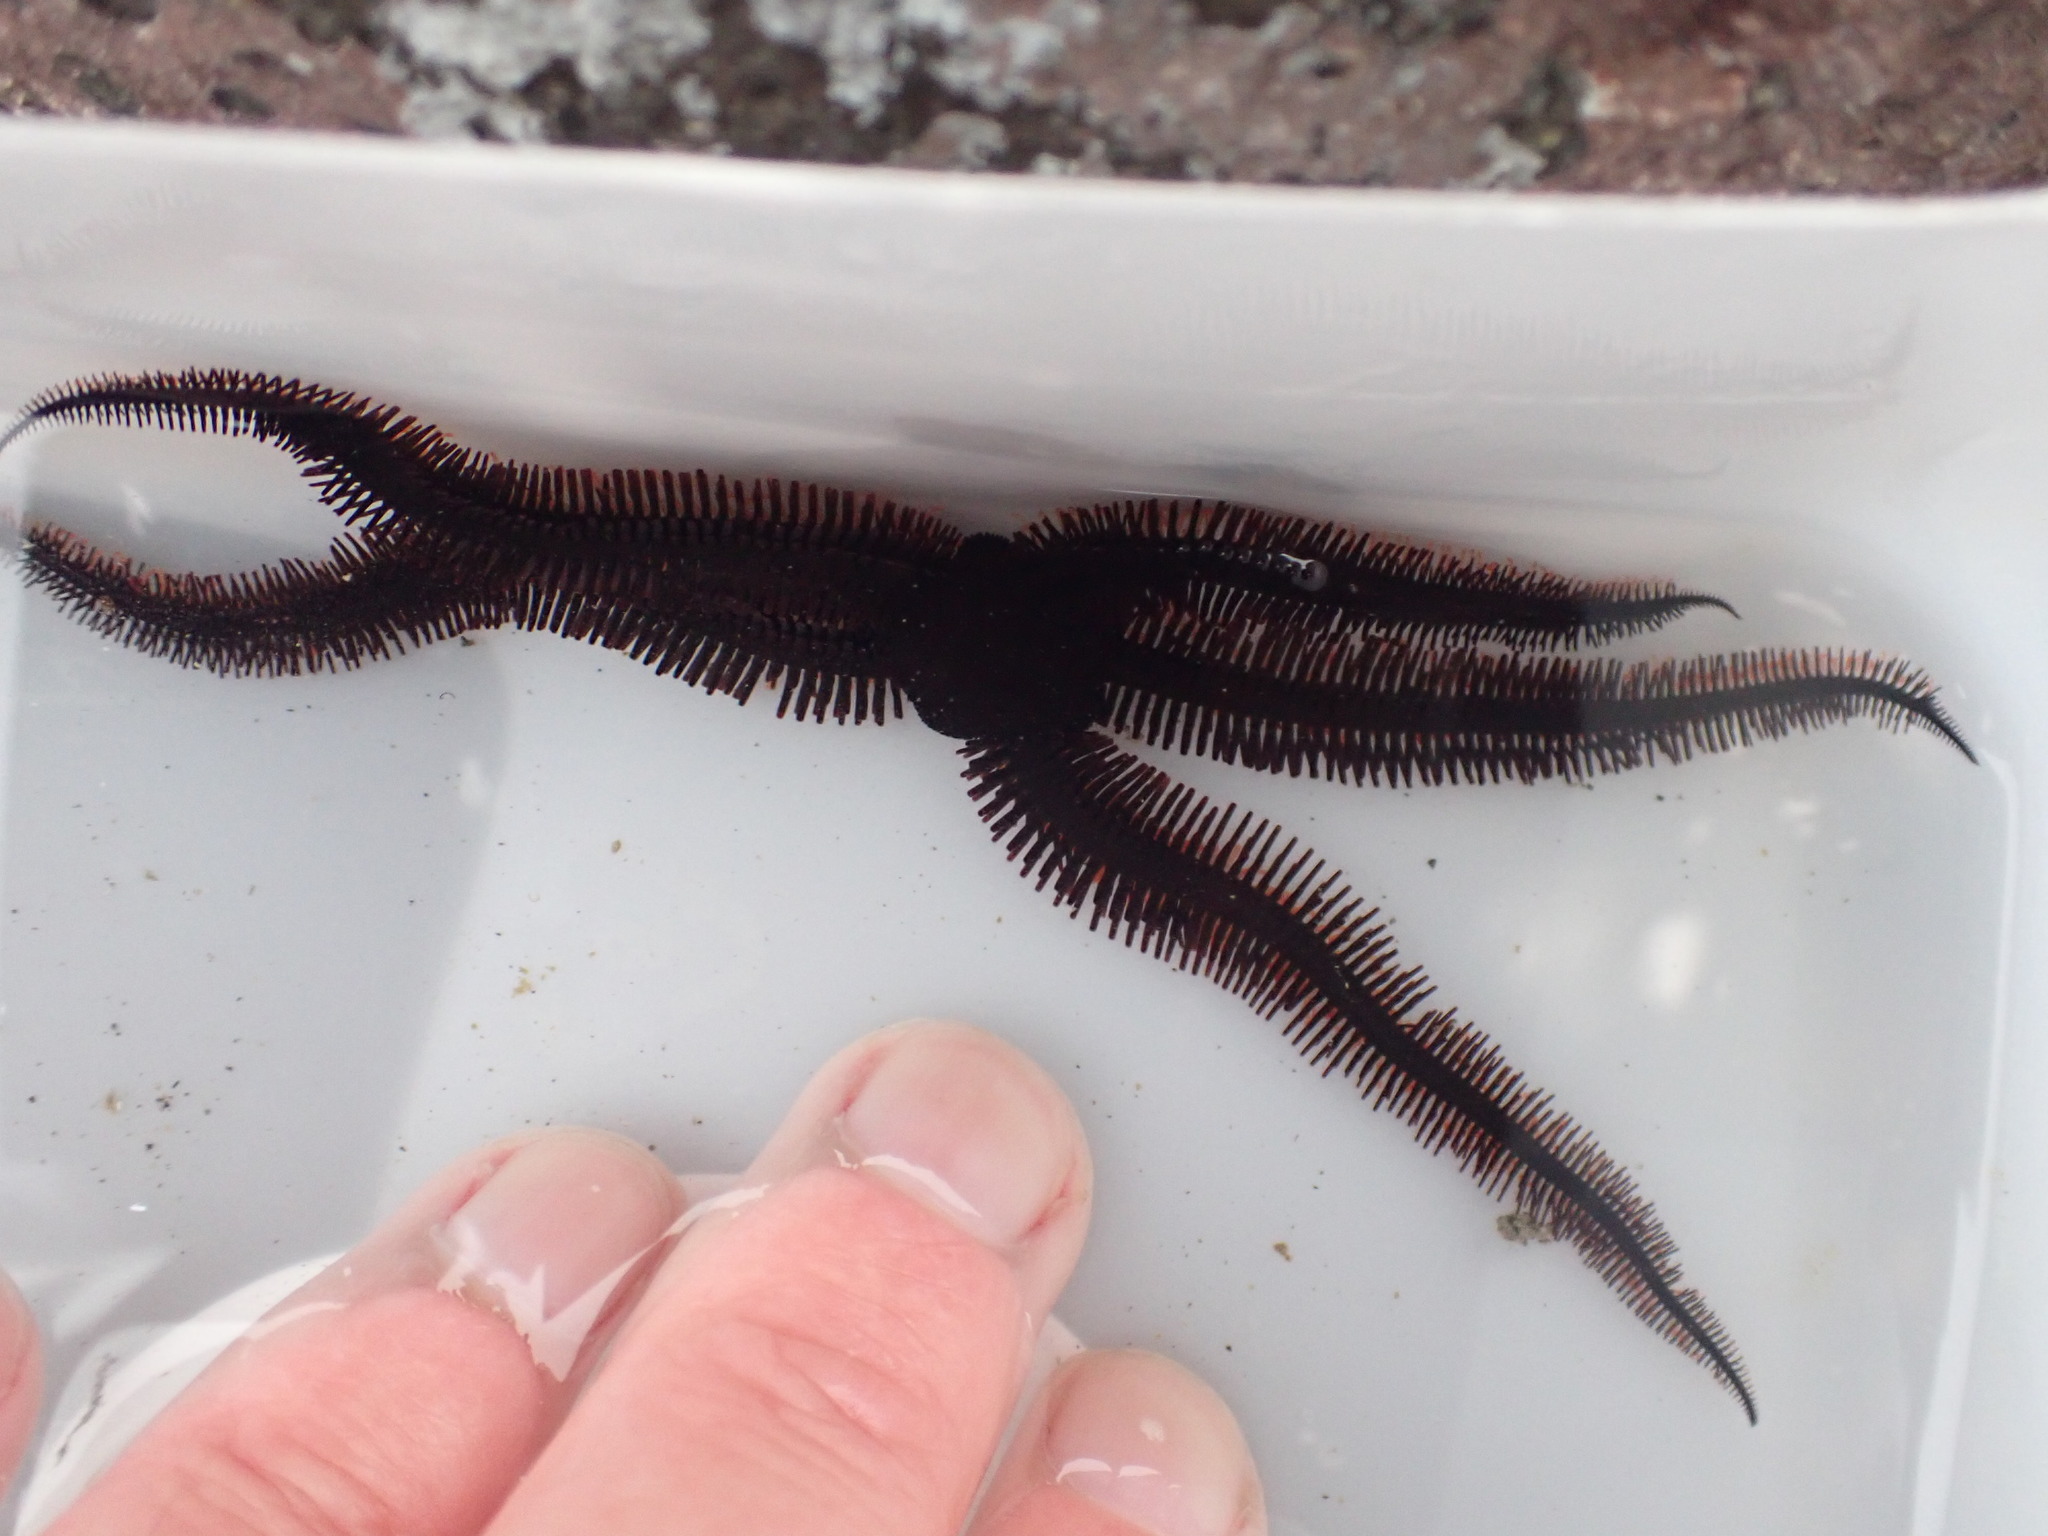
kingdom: Animalia
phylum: Echinodermata
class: Ophiuroidea
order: Ophiacanthida
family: Ophiopteridae
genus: Ophiopteris
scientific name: Ophiopteris antipodum
